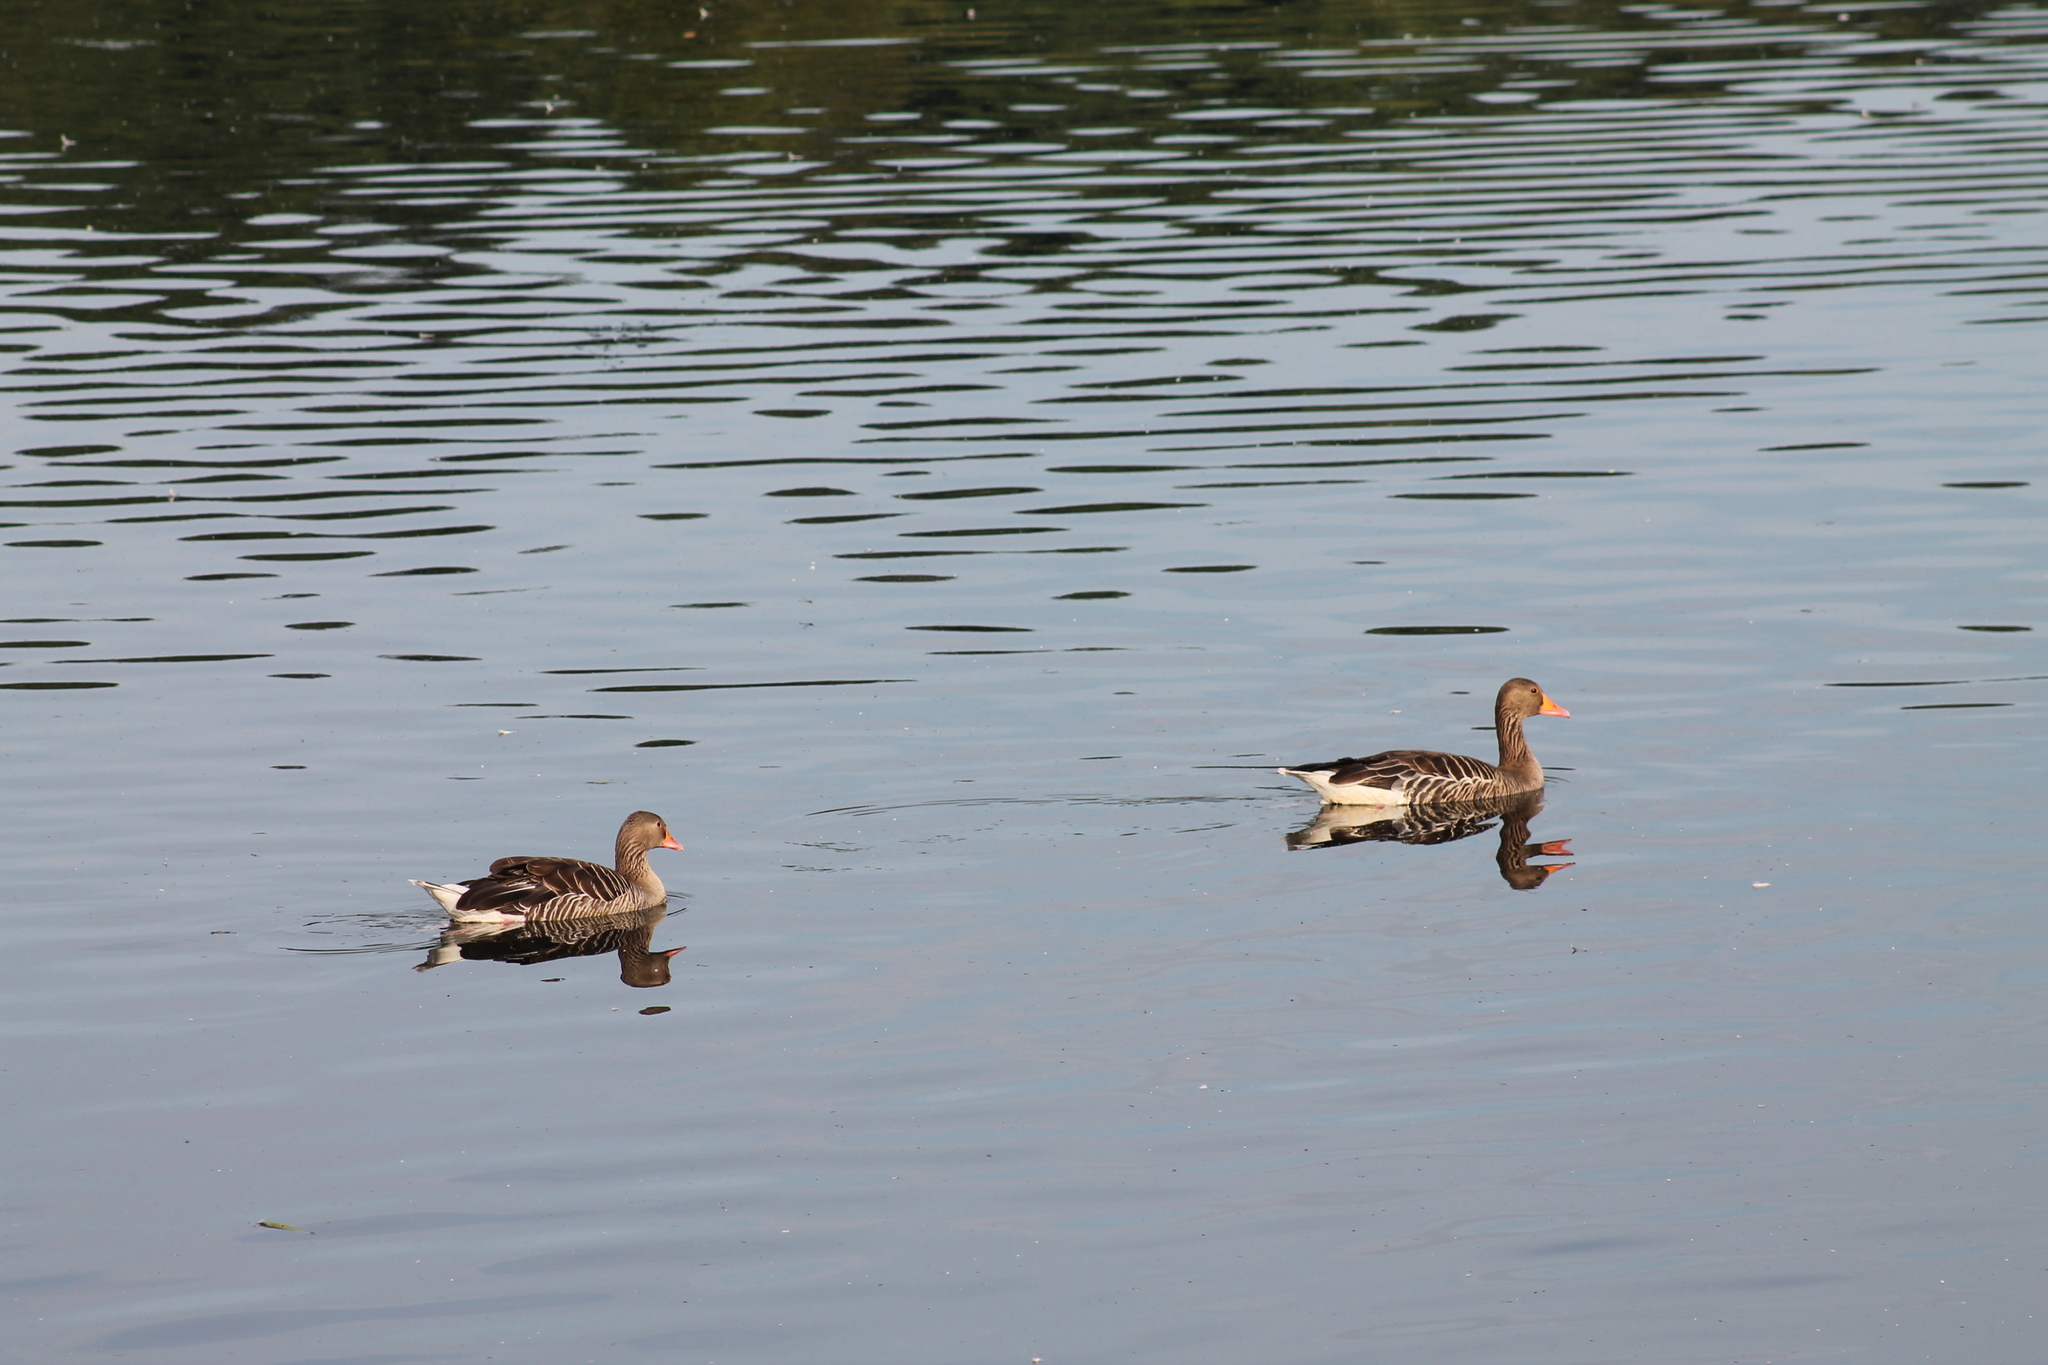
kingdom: Animalia
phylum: Chordata
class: Aves
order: Anseriformes
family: Anatidae
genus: Anser
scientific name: Anser anser
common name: Greylag goose
